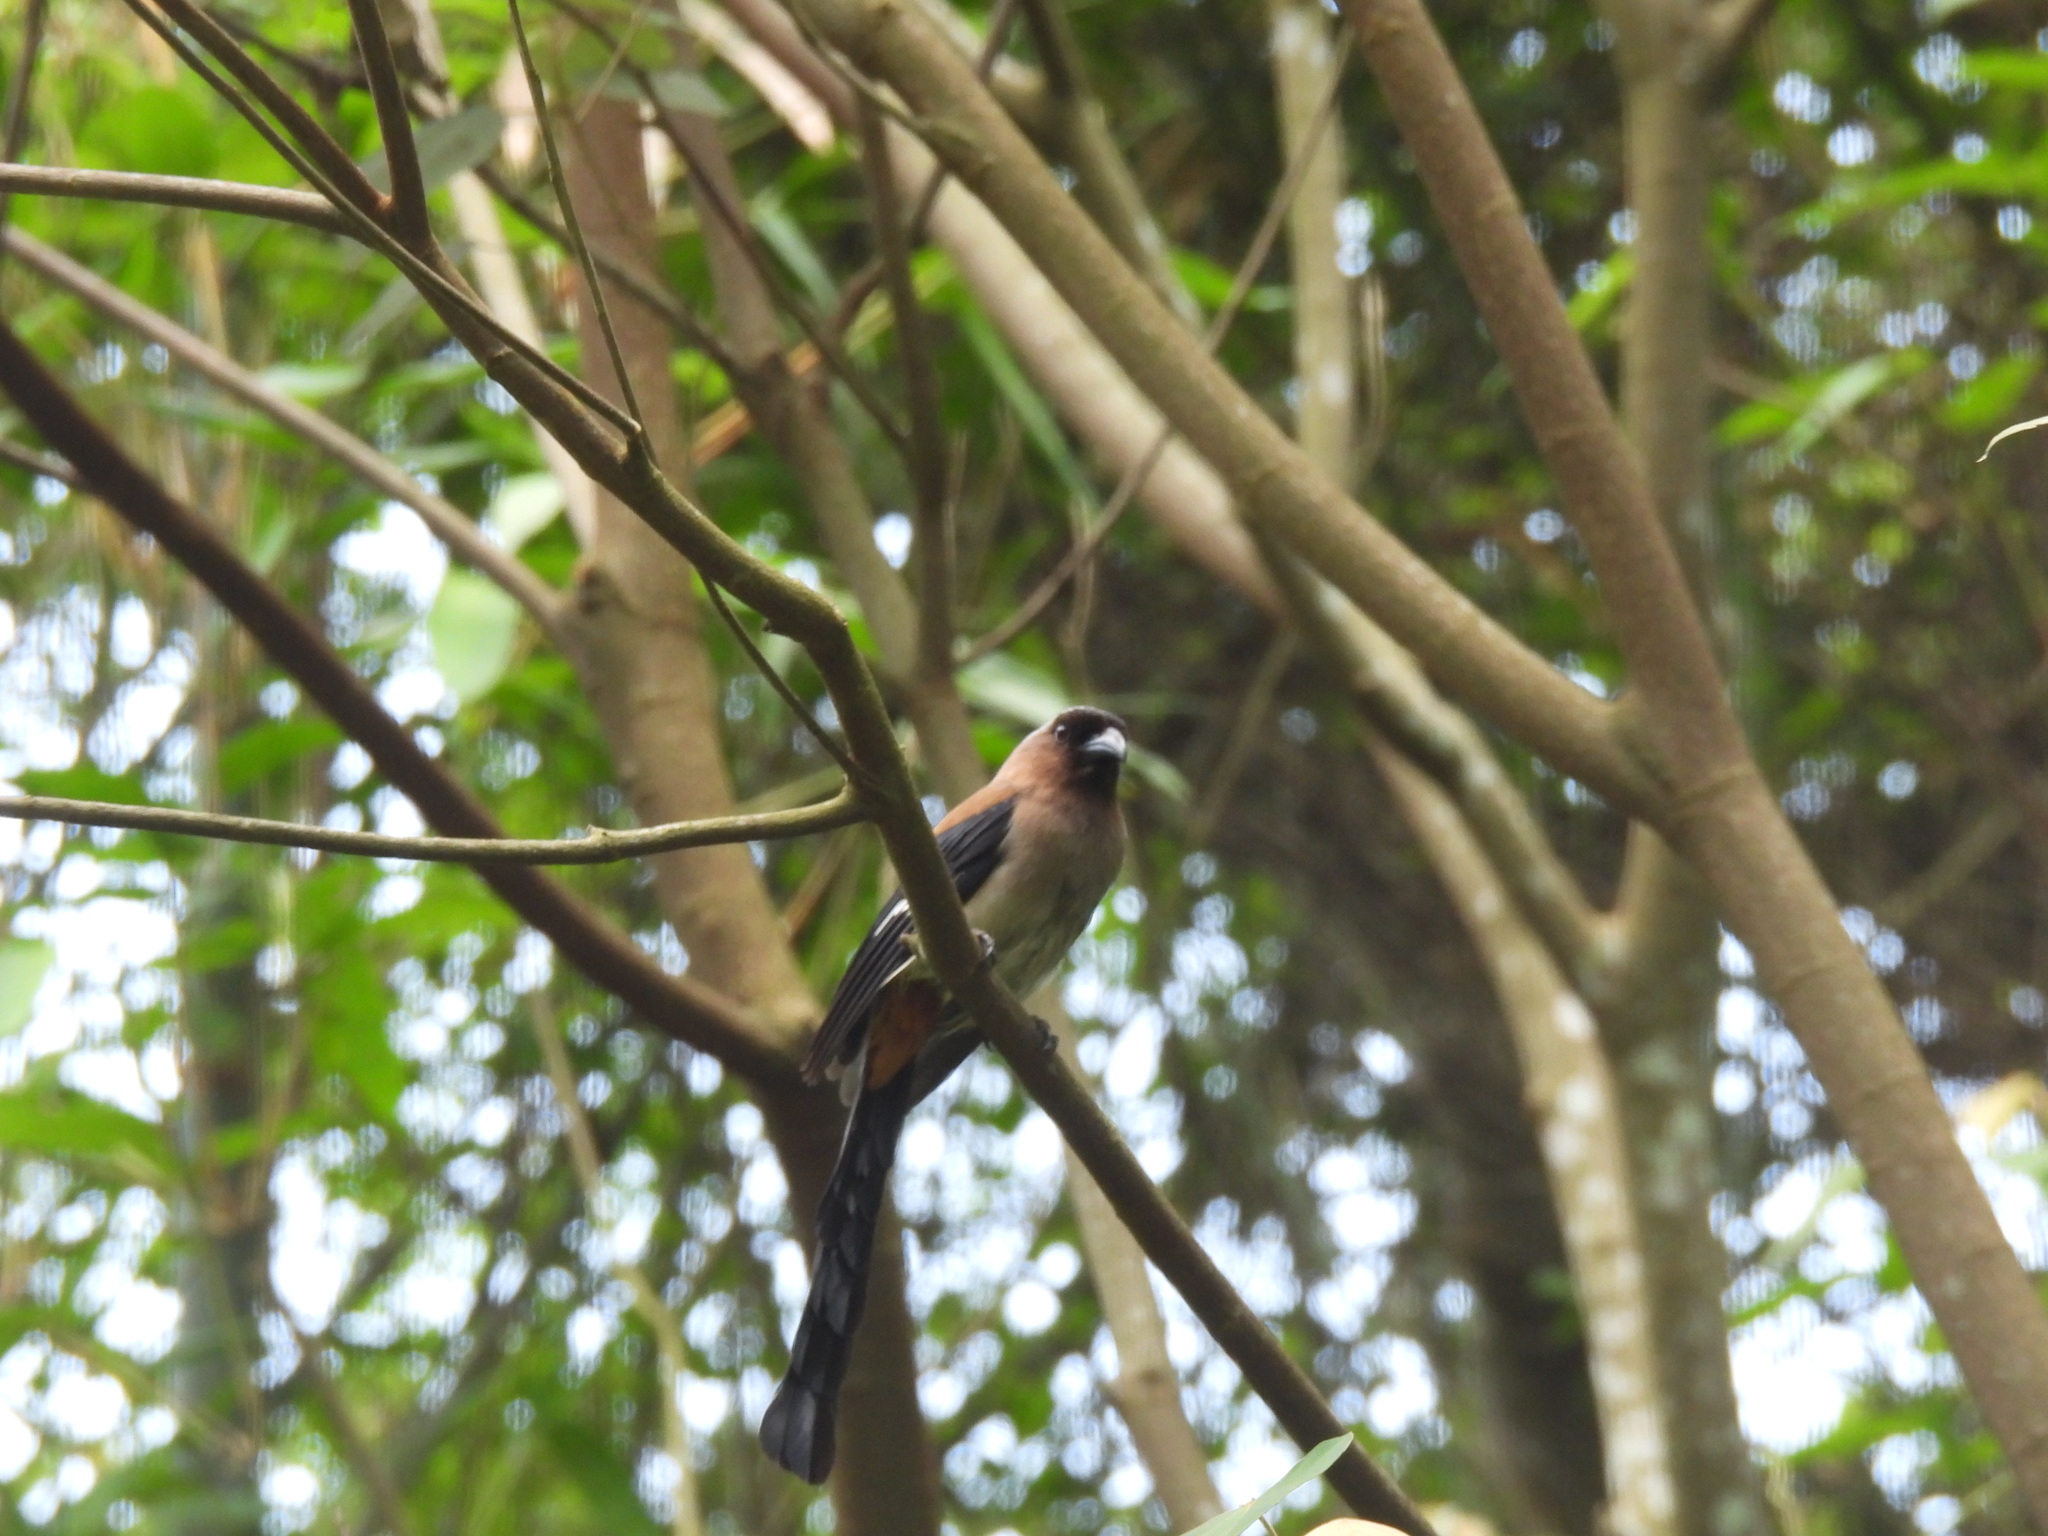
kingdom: Animalia
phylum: Chordata
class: Aves
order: Passeriformes
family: Corvidae
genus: Dendrocitta
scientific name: Dendrocitta formosae
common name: Grey treepie
